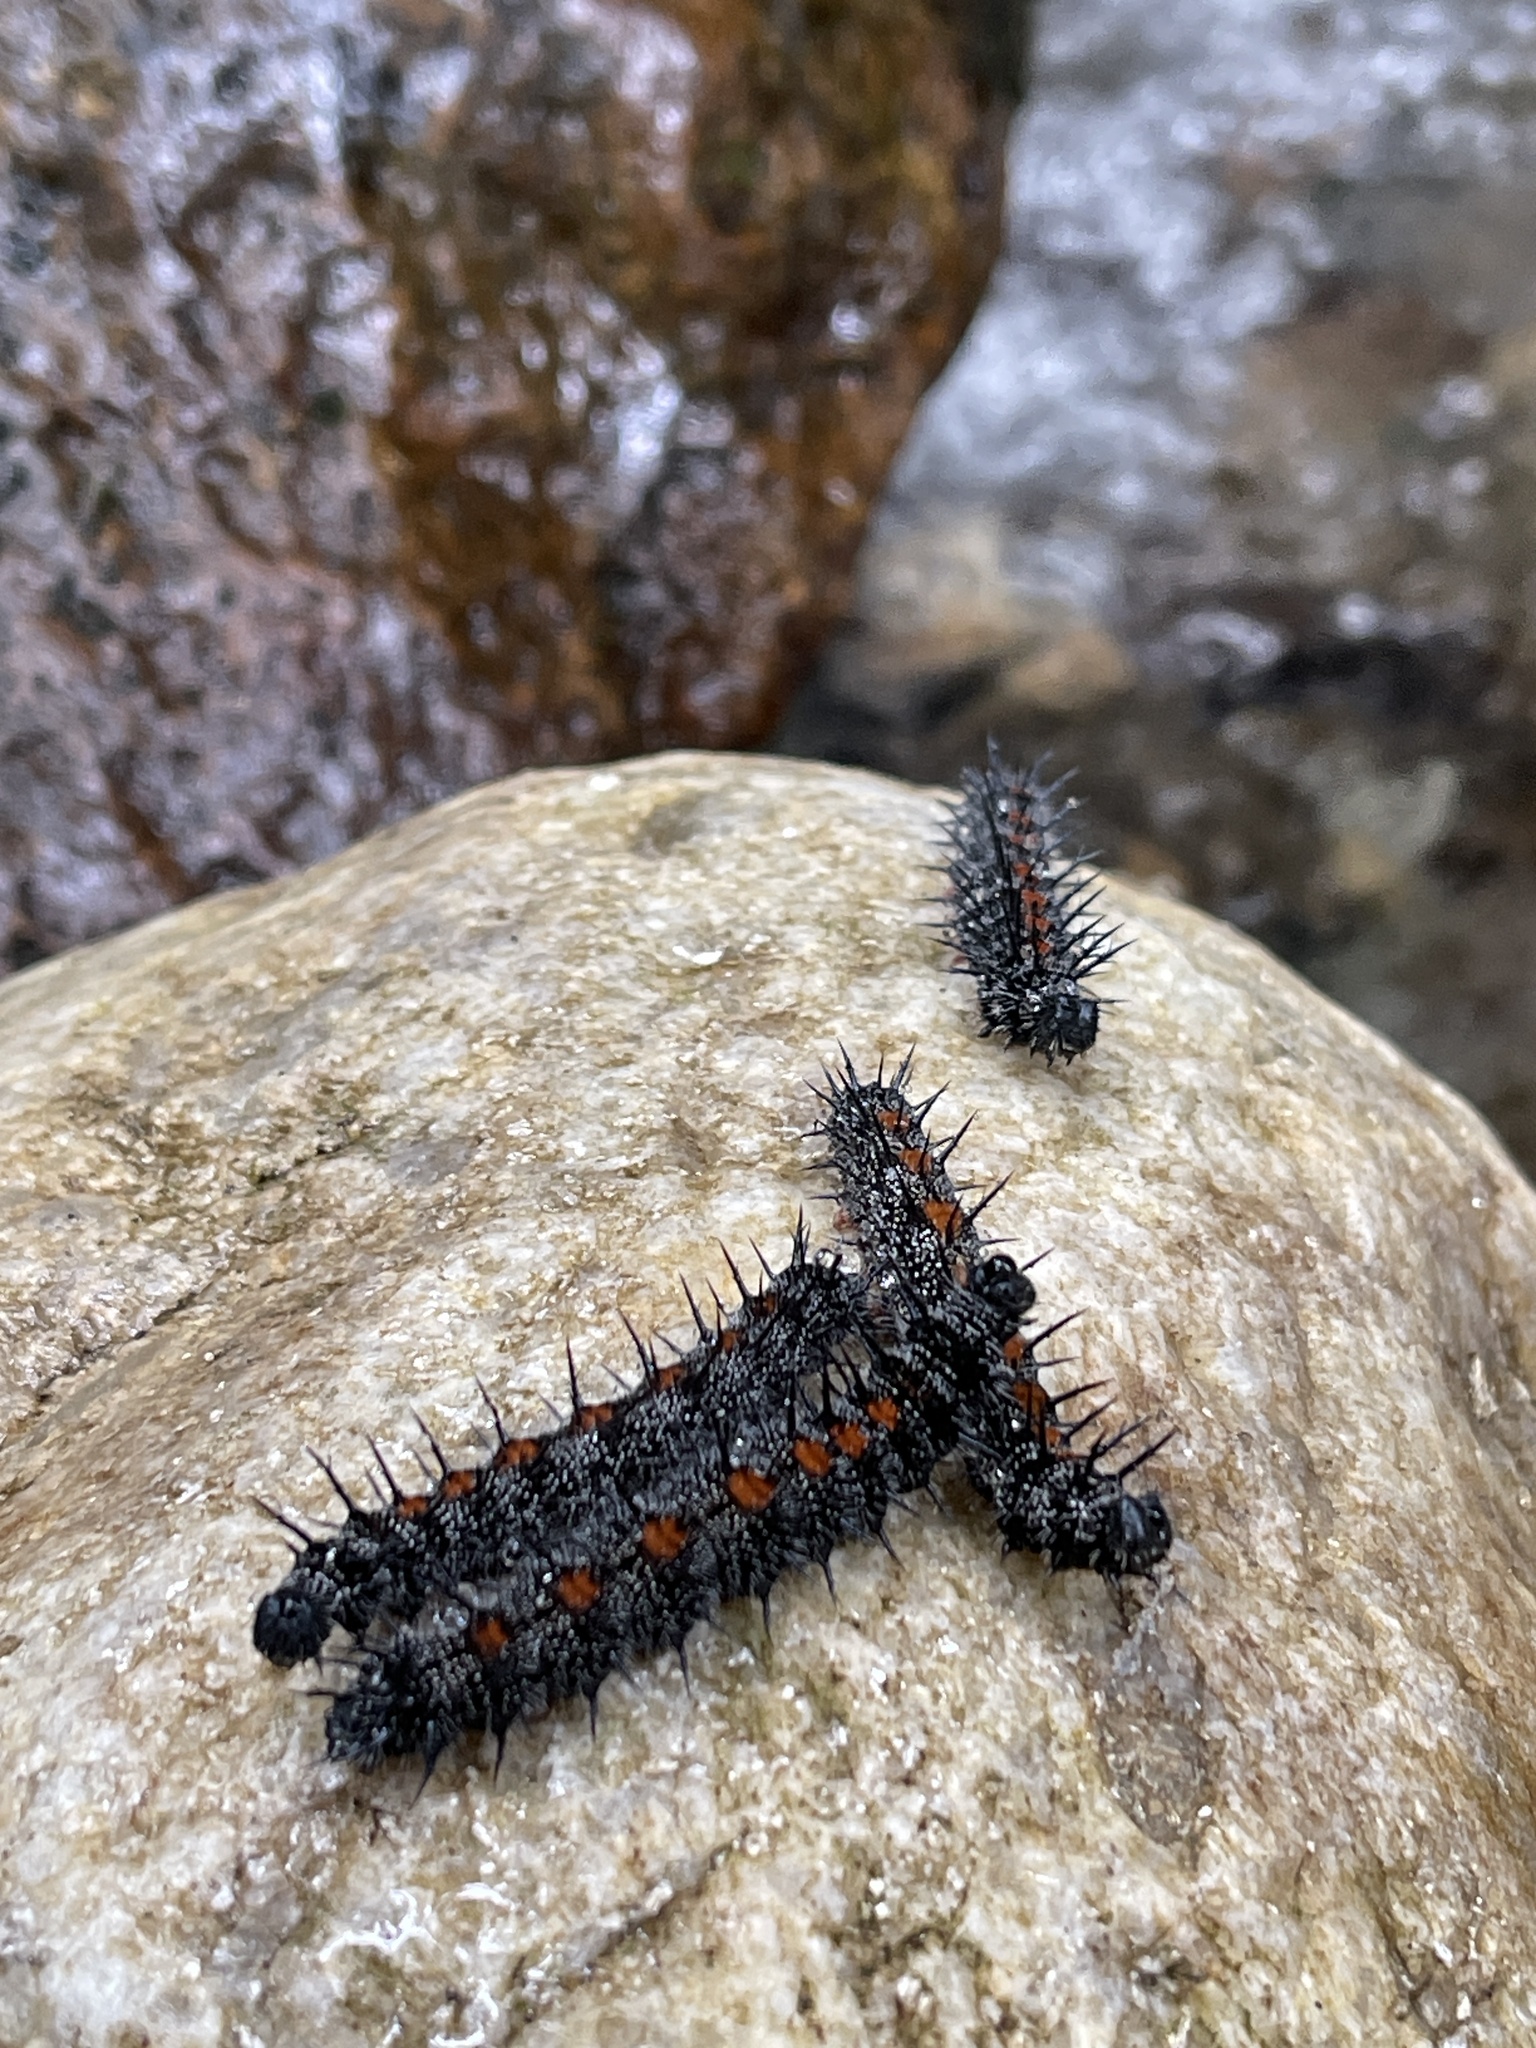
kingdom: Animalia
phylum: Arthropoda
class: Insecta
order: Lepidoptera
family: Nymphalidae
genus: Nymphalis
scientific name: Nymphalis antiopa
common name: Camberwell beauty
